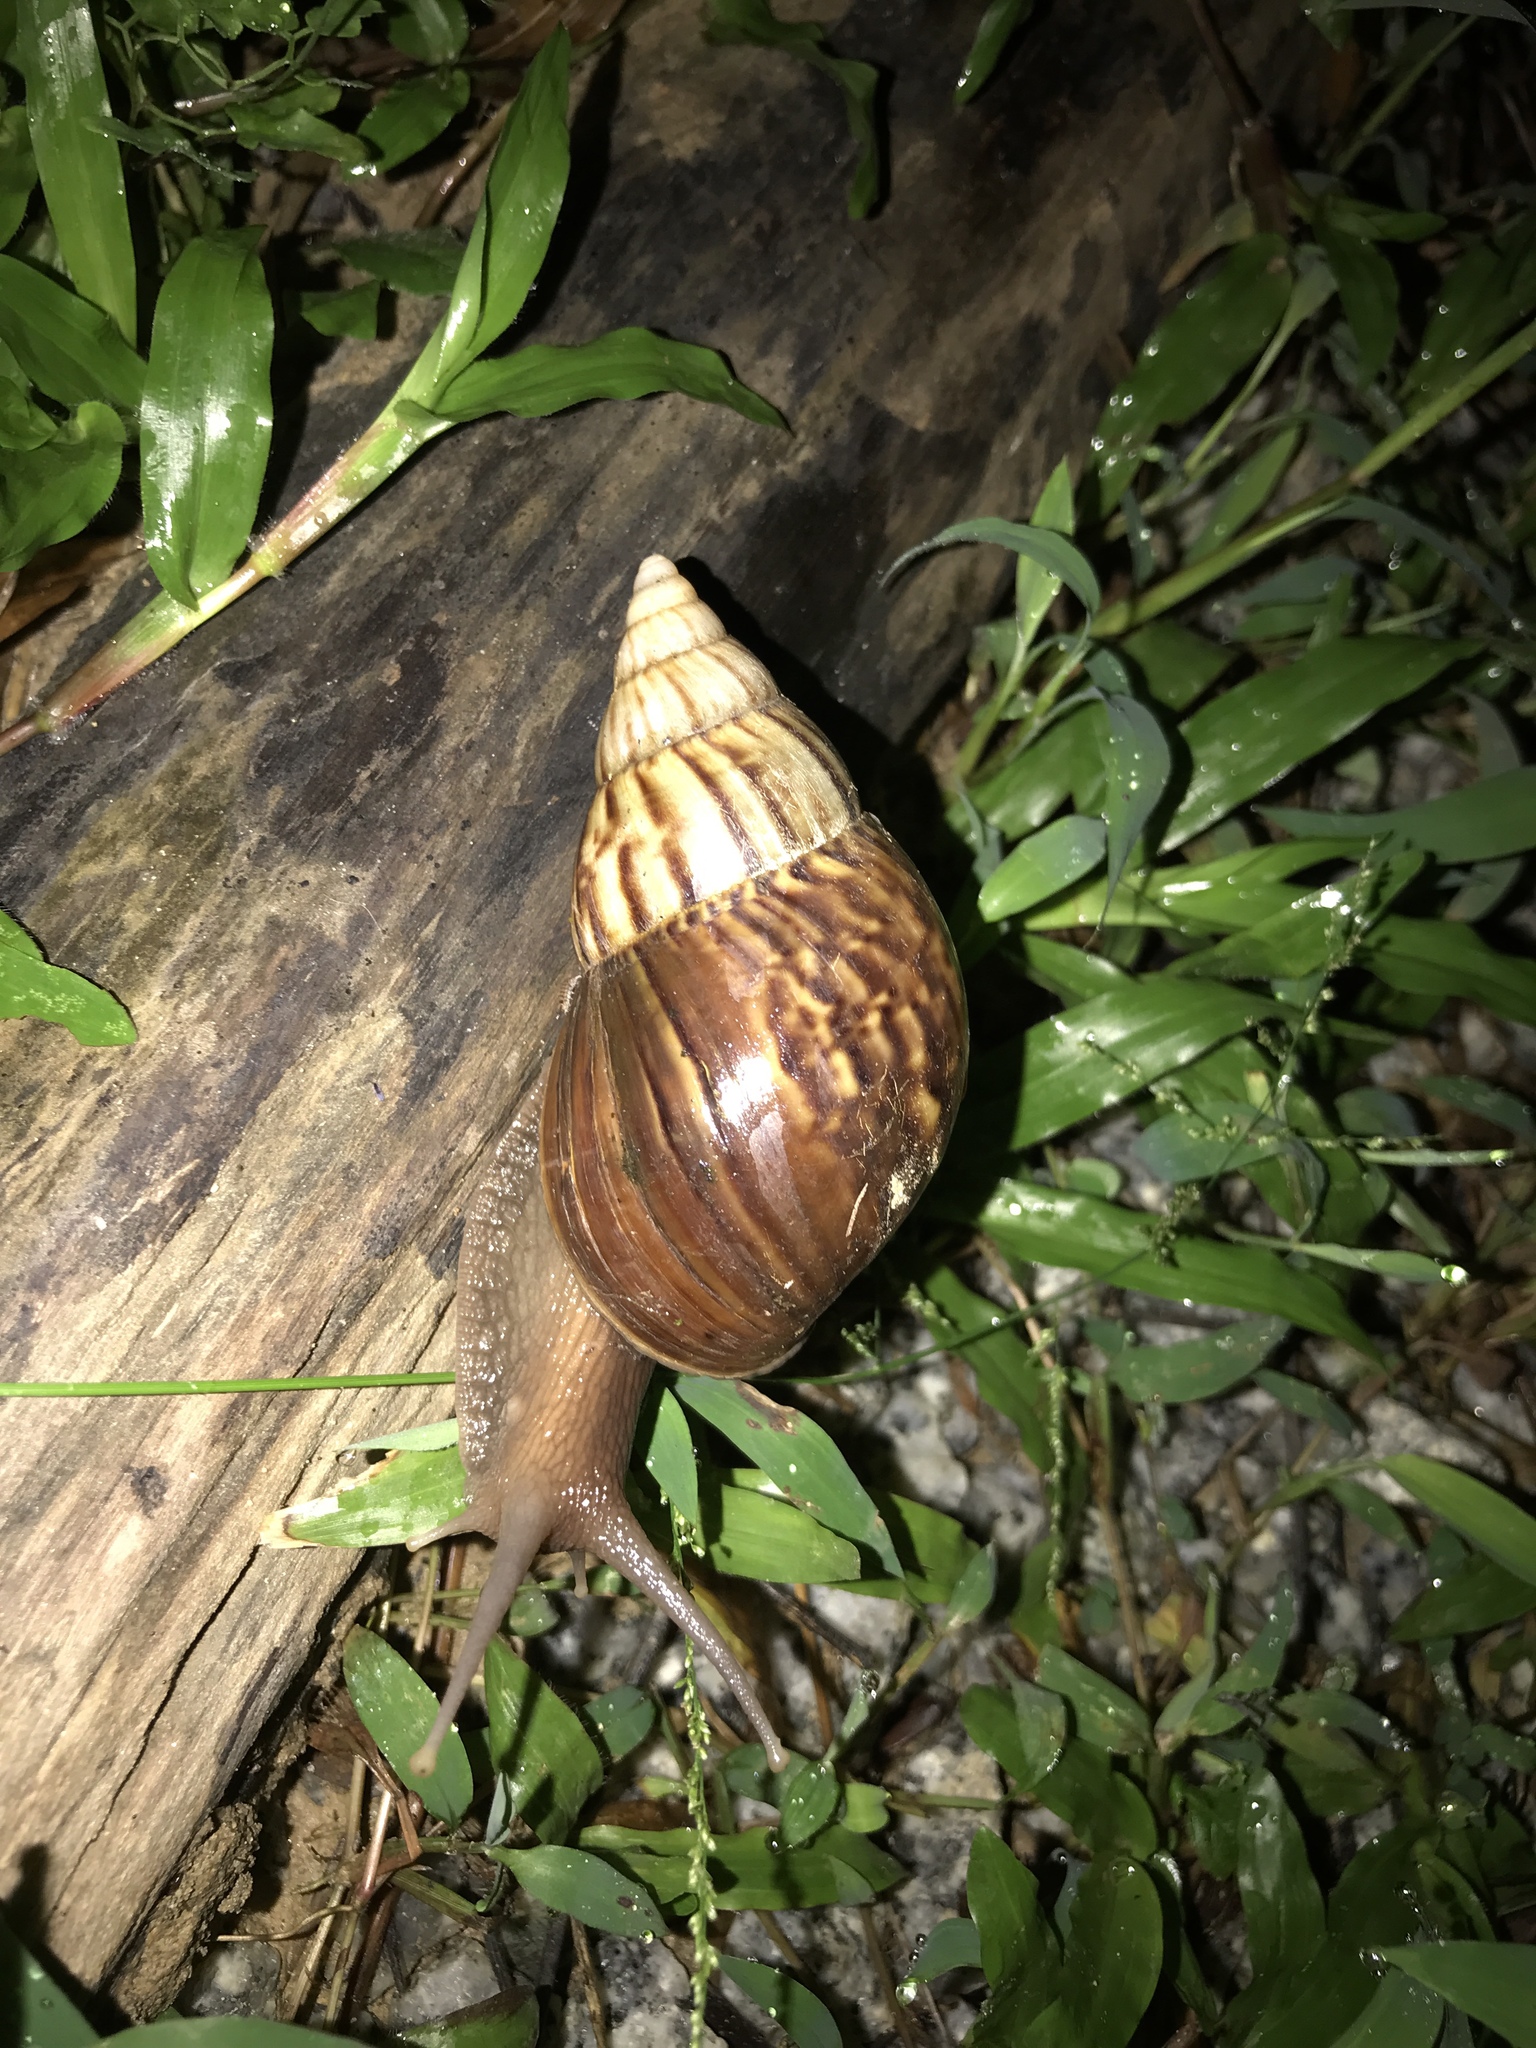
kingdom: Animalia
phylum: Mollusca
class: Gastropoda
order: Stylommatophora
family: Achatinidae
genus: Lissachatina
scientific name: Lissachatina fulica
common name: Giant african snail
